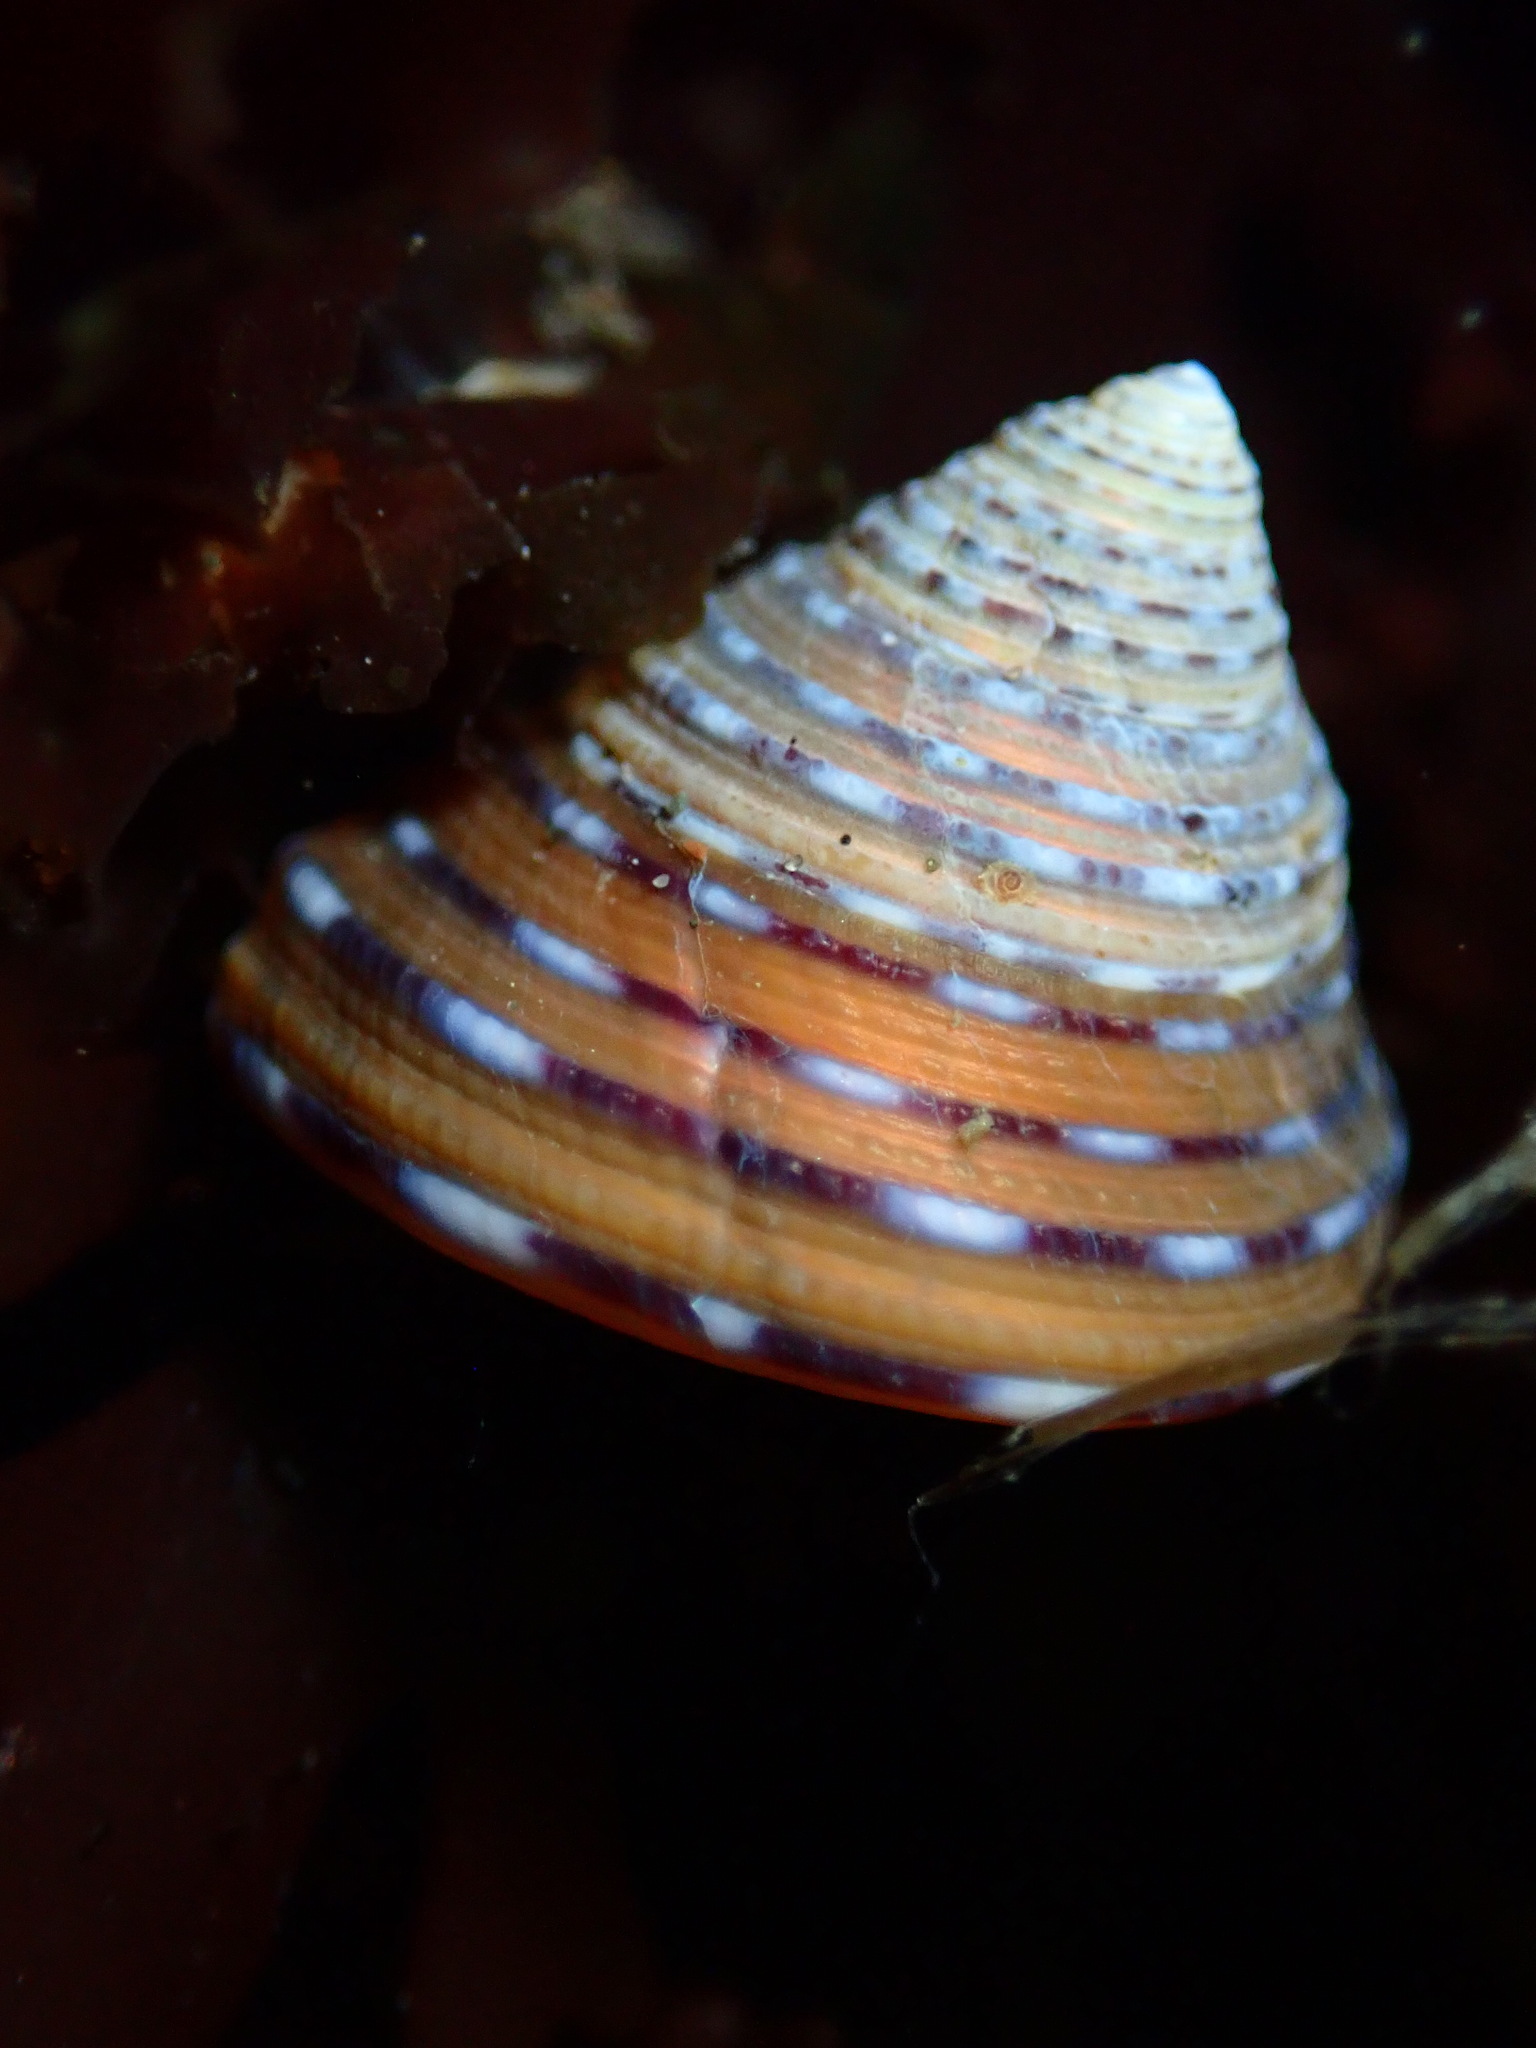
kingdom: Animalia
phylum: Mollusca
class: Gastropoda
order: Trochida
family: Calliostomatidae
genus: Calliostoma
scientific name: Calliostoma tricolor
